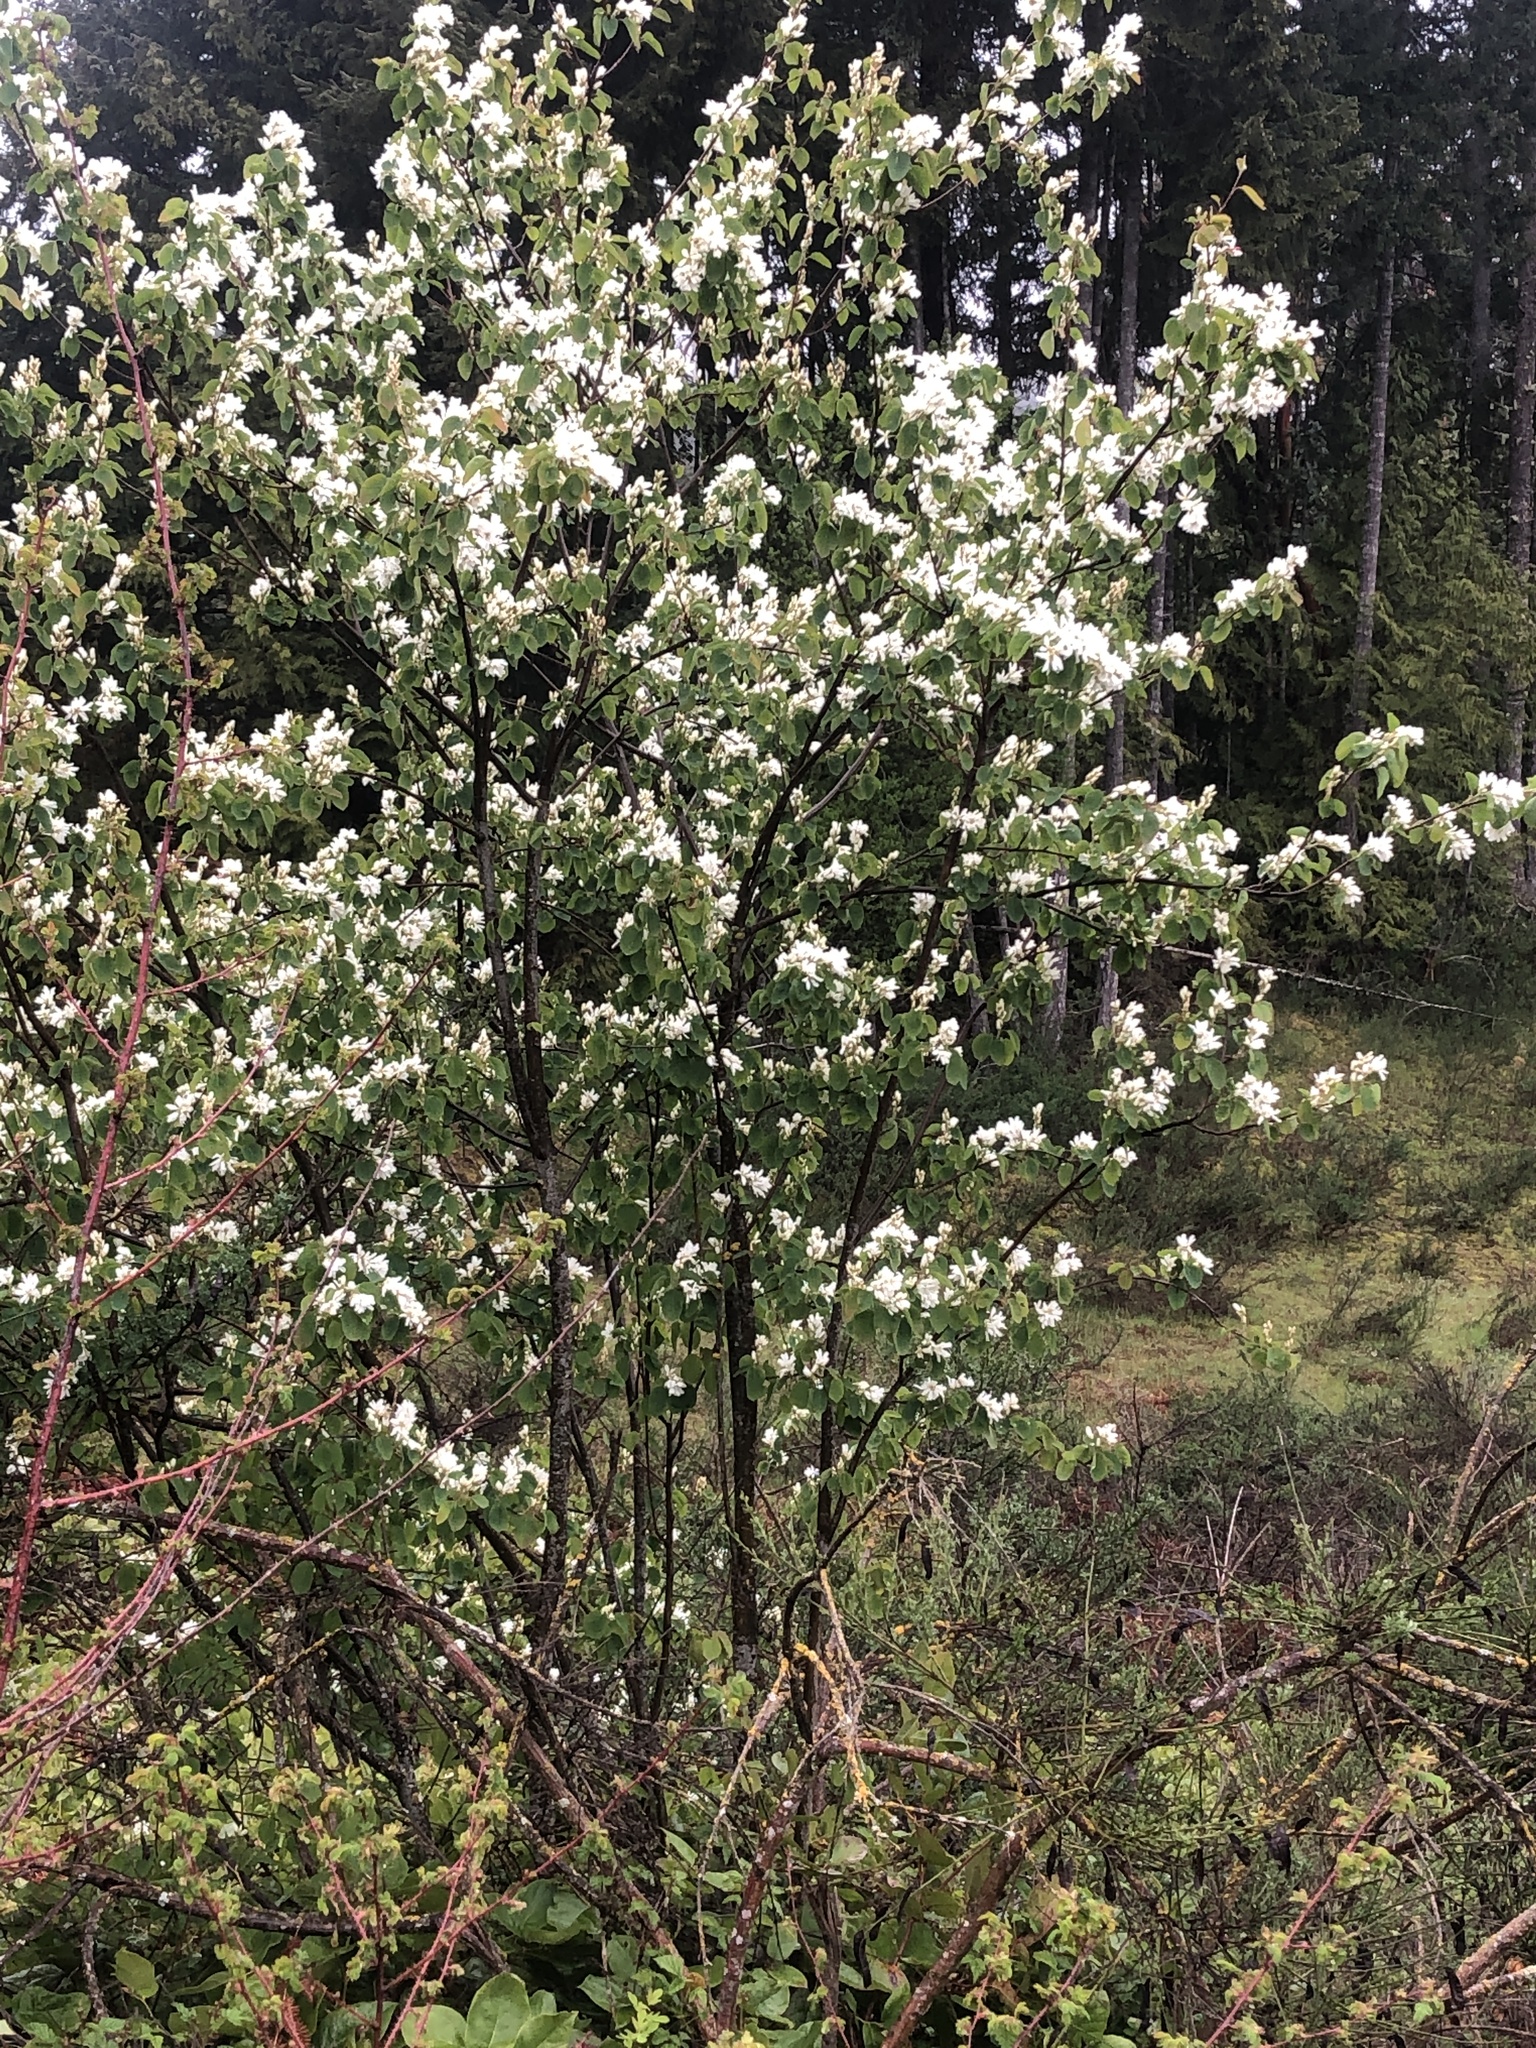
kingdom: Plantae
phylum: Tracheophyta
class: Magnoliopsida
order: Rosales
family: Rosaceae
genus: Amelanchier
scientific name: Amelanchier alnifolia
